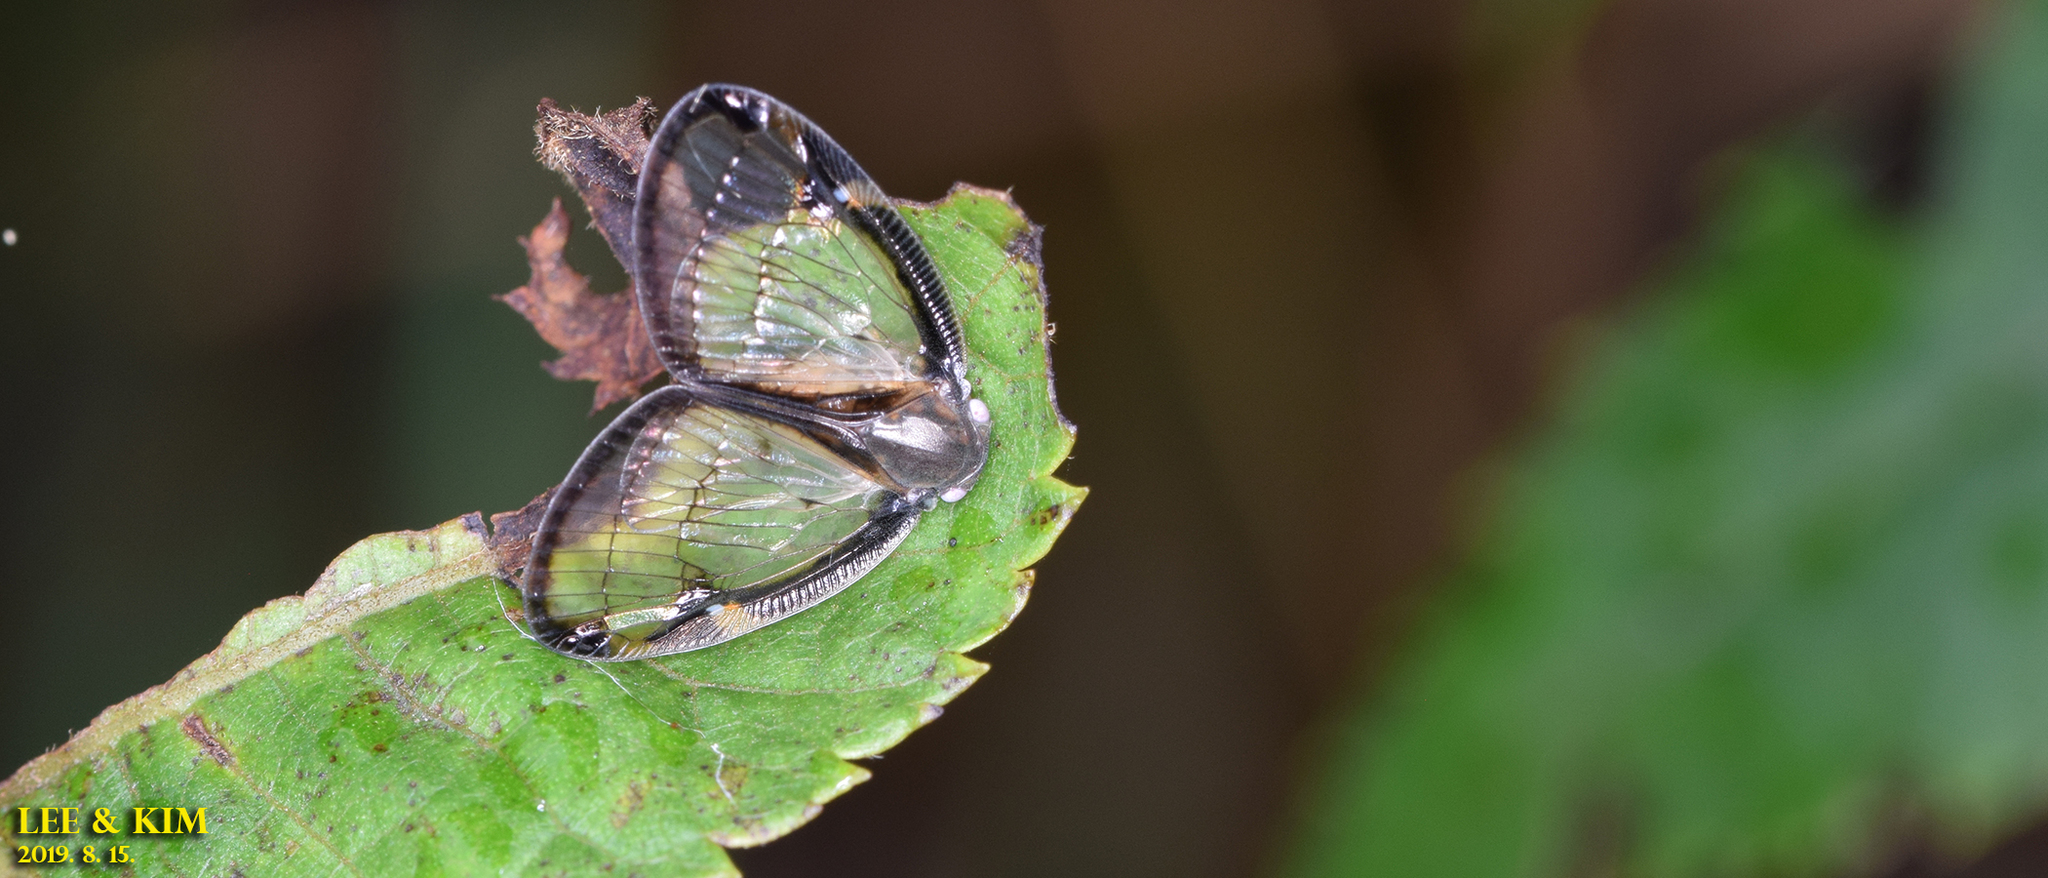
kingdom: Animalia
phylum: Arthropoda
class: Insecta
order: Hemiptera
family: Ricaniidae
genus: Euricania
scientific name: Euricania facialis
